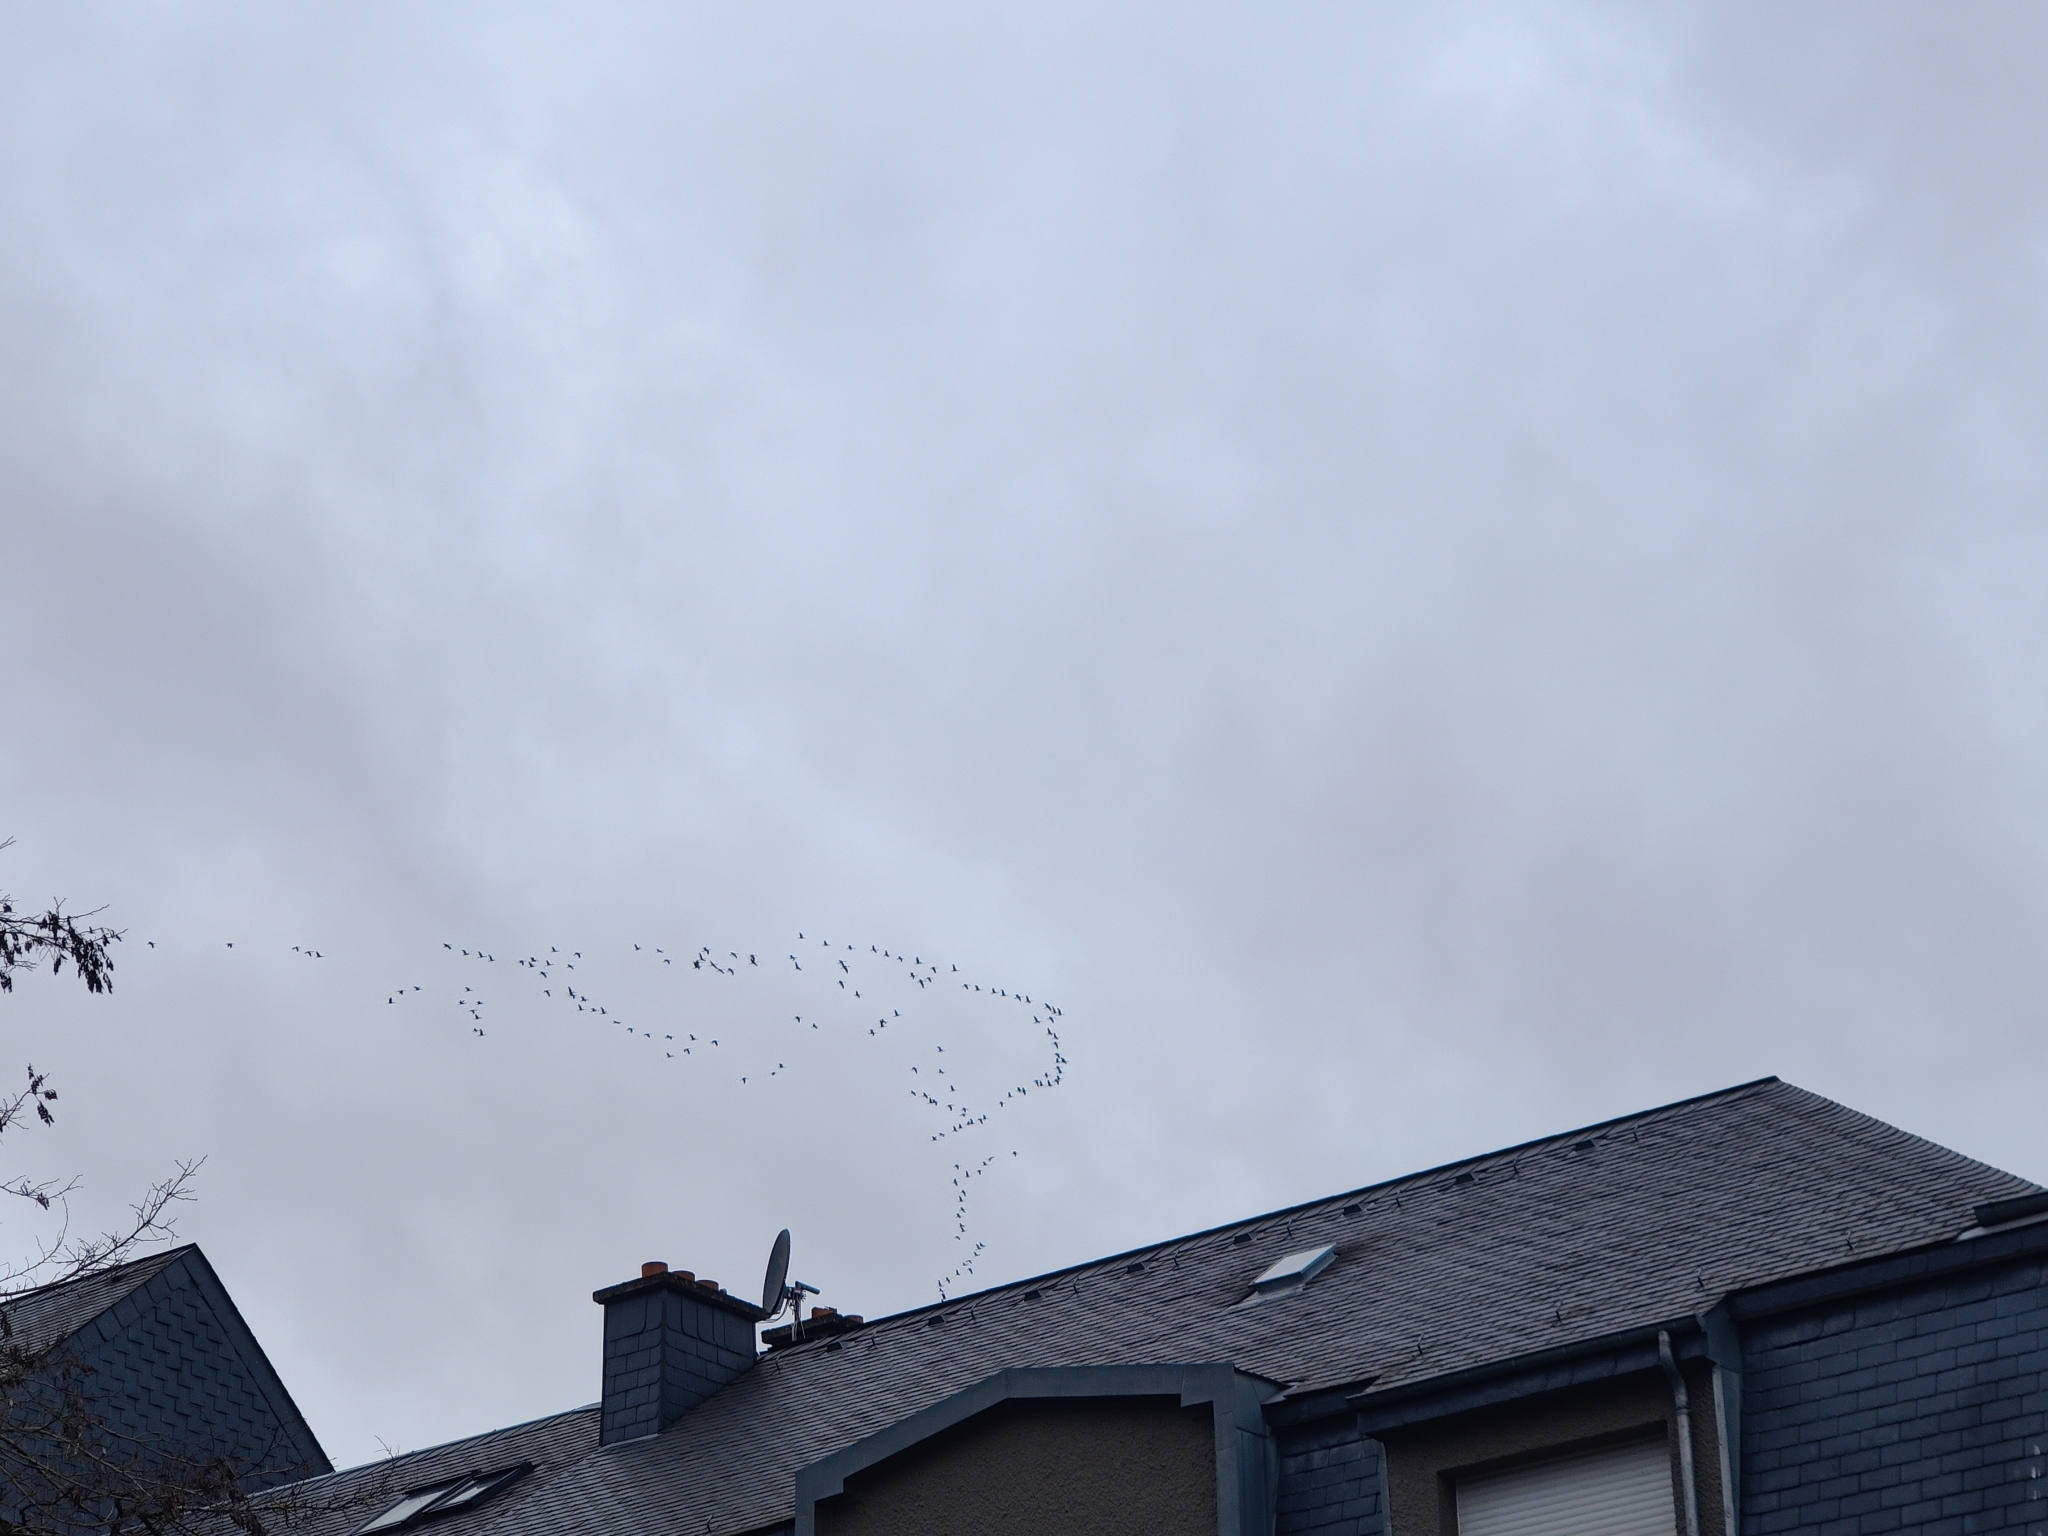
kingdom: Animalia
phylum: Chordata
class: Aves
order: Gruiformes
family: Gruidae
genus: Grus
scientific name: Grus grus
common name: Common crane
